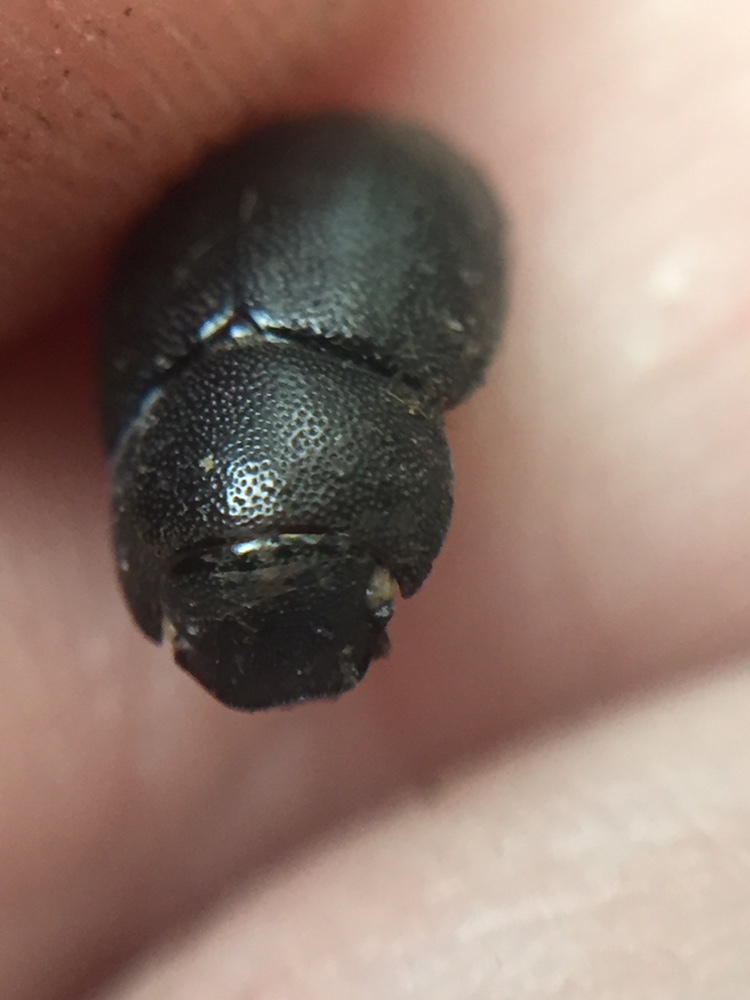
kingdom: Animalia
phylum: Arthropoda
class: Insecta
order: Coleoptera
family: Scarabaeidae
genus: Gnaphalopoda
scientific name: Gnaphalopoda piceus
